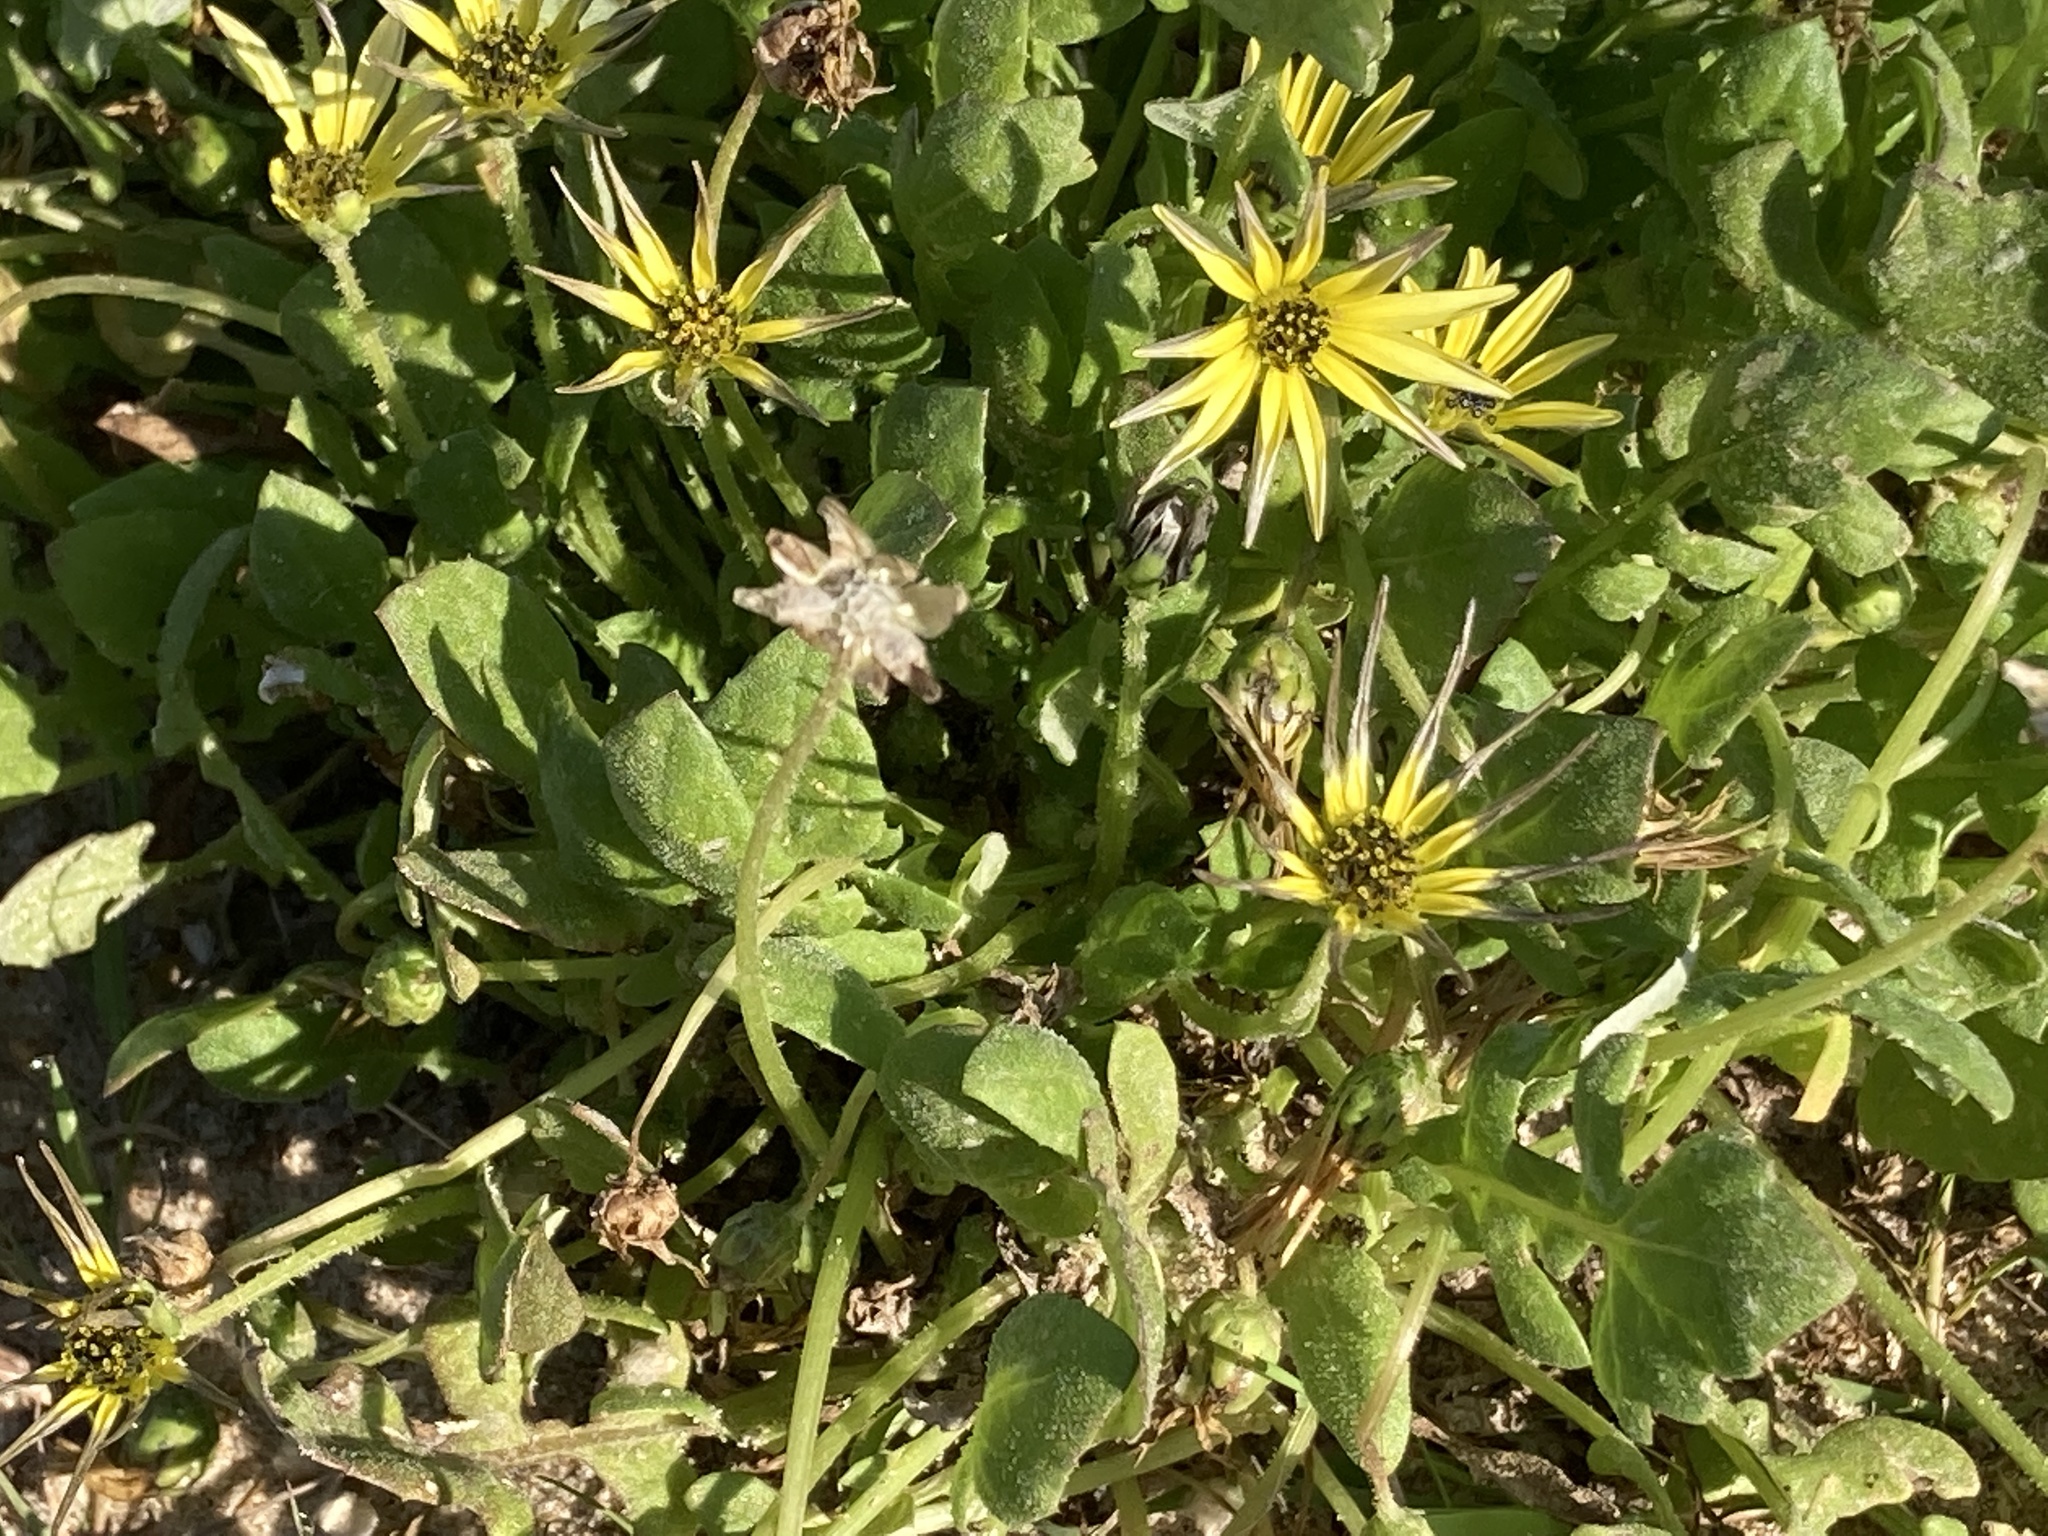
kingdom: Plantae
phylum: Tracheophyta
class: Magnoliopsida
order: Asterales
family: Asteraceae
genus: Arctotheca
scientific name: Arctotheca calendula
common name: Capeweed
